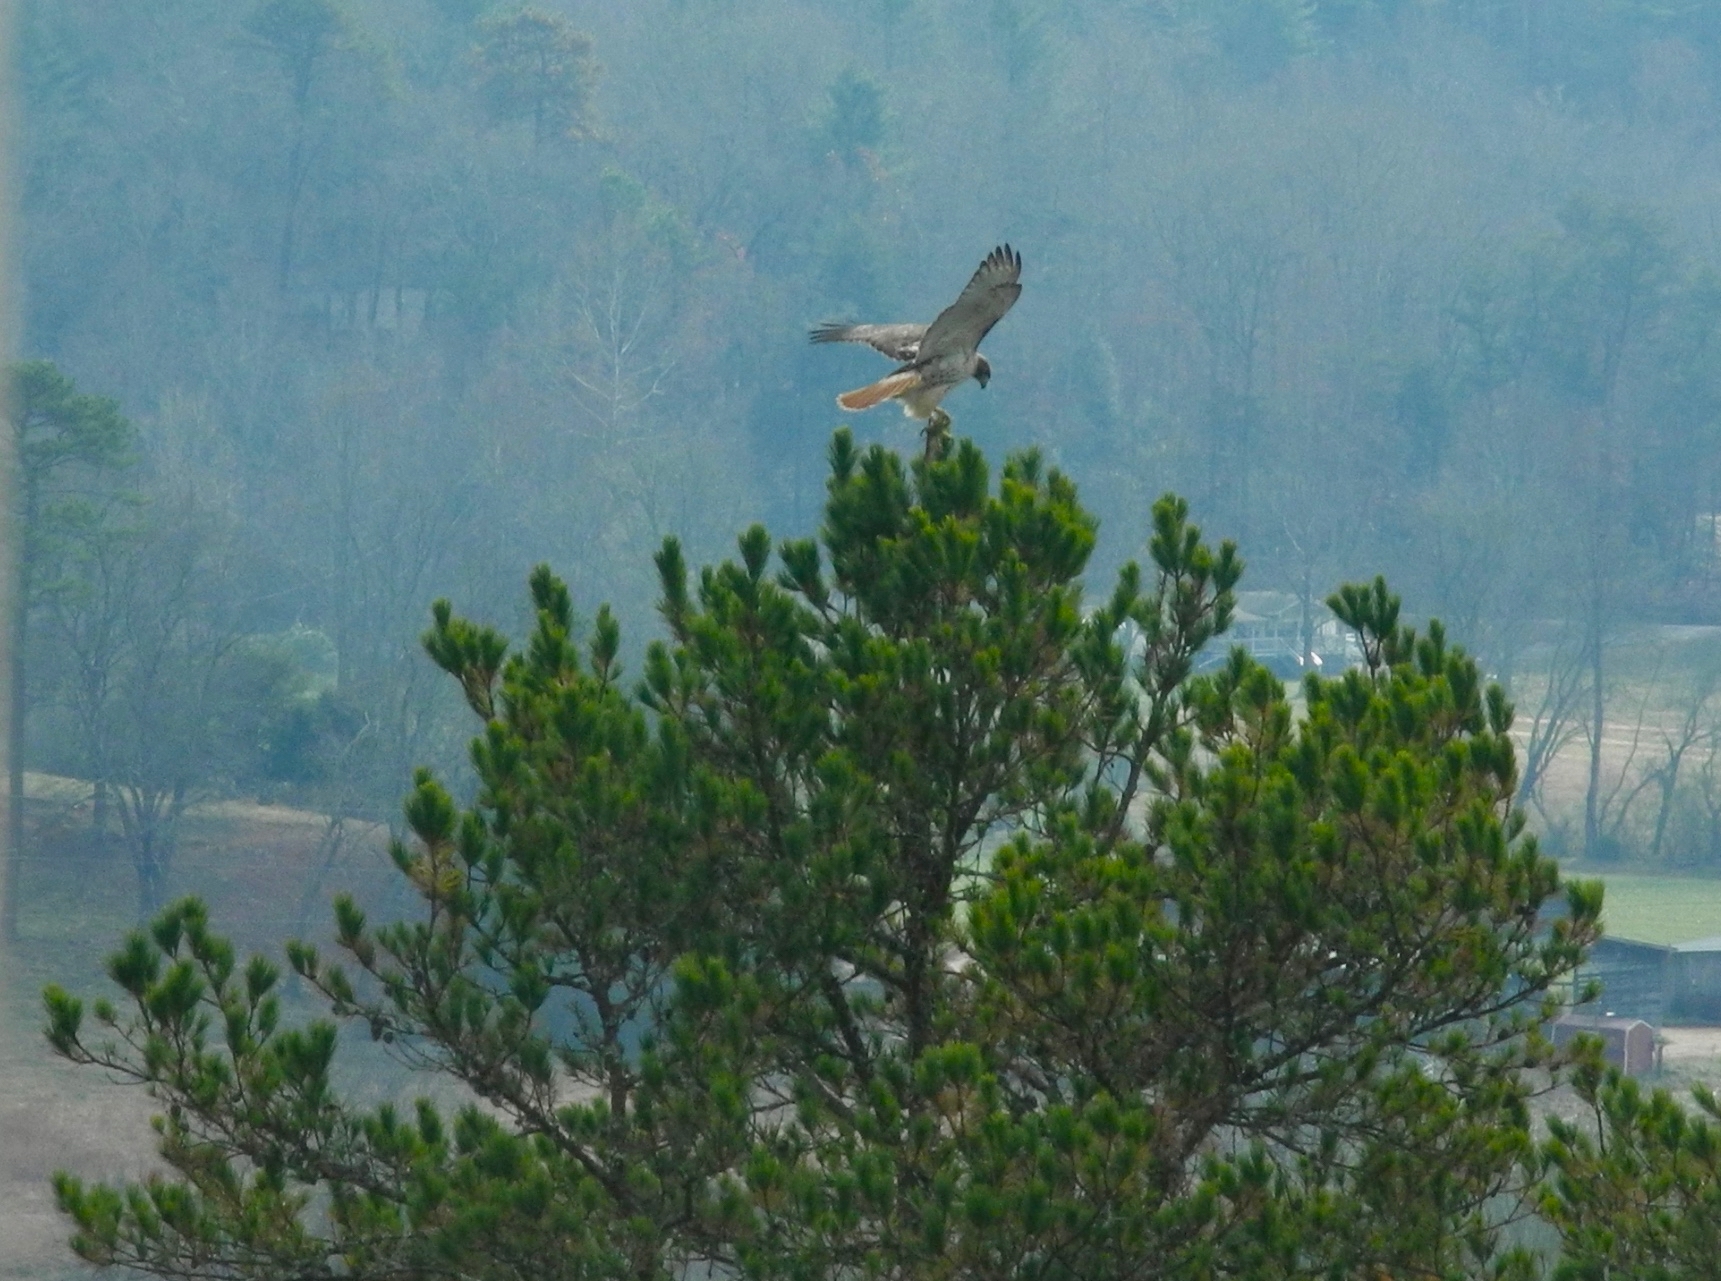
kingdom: Animalia
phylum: Chordata
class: Aves
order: Accipitriformes
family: Accipitridae
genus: Buteo
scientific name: Buteo jamaicensis
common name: Red-tailed hawk
